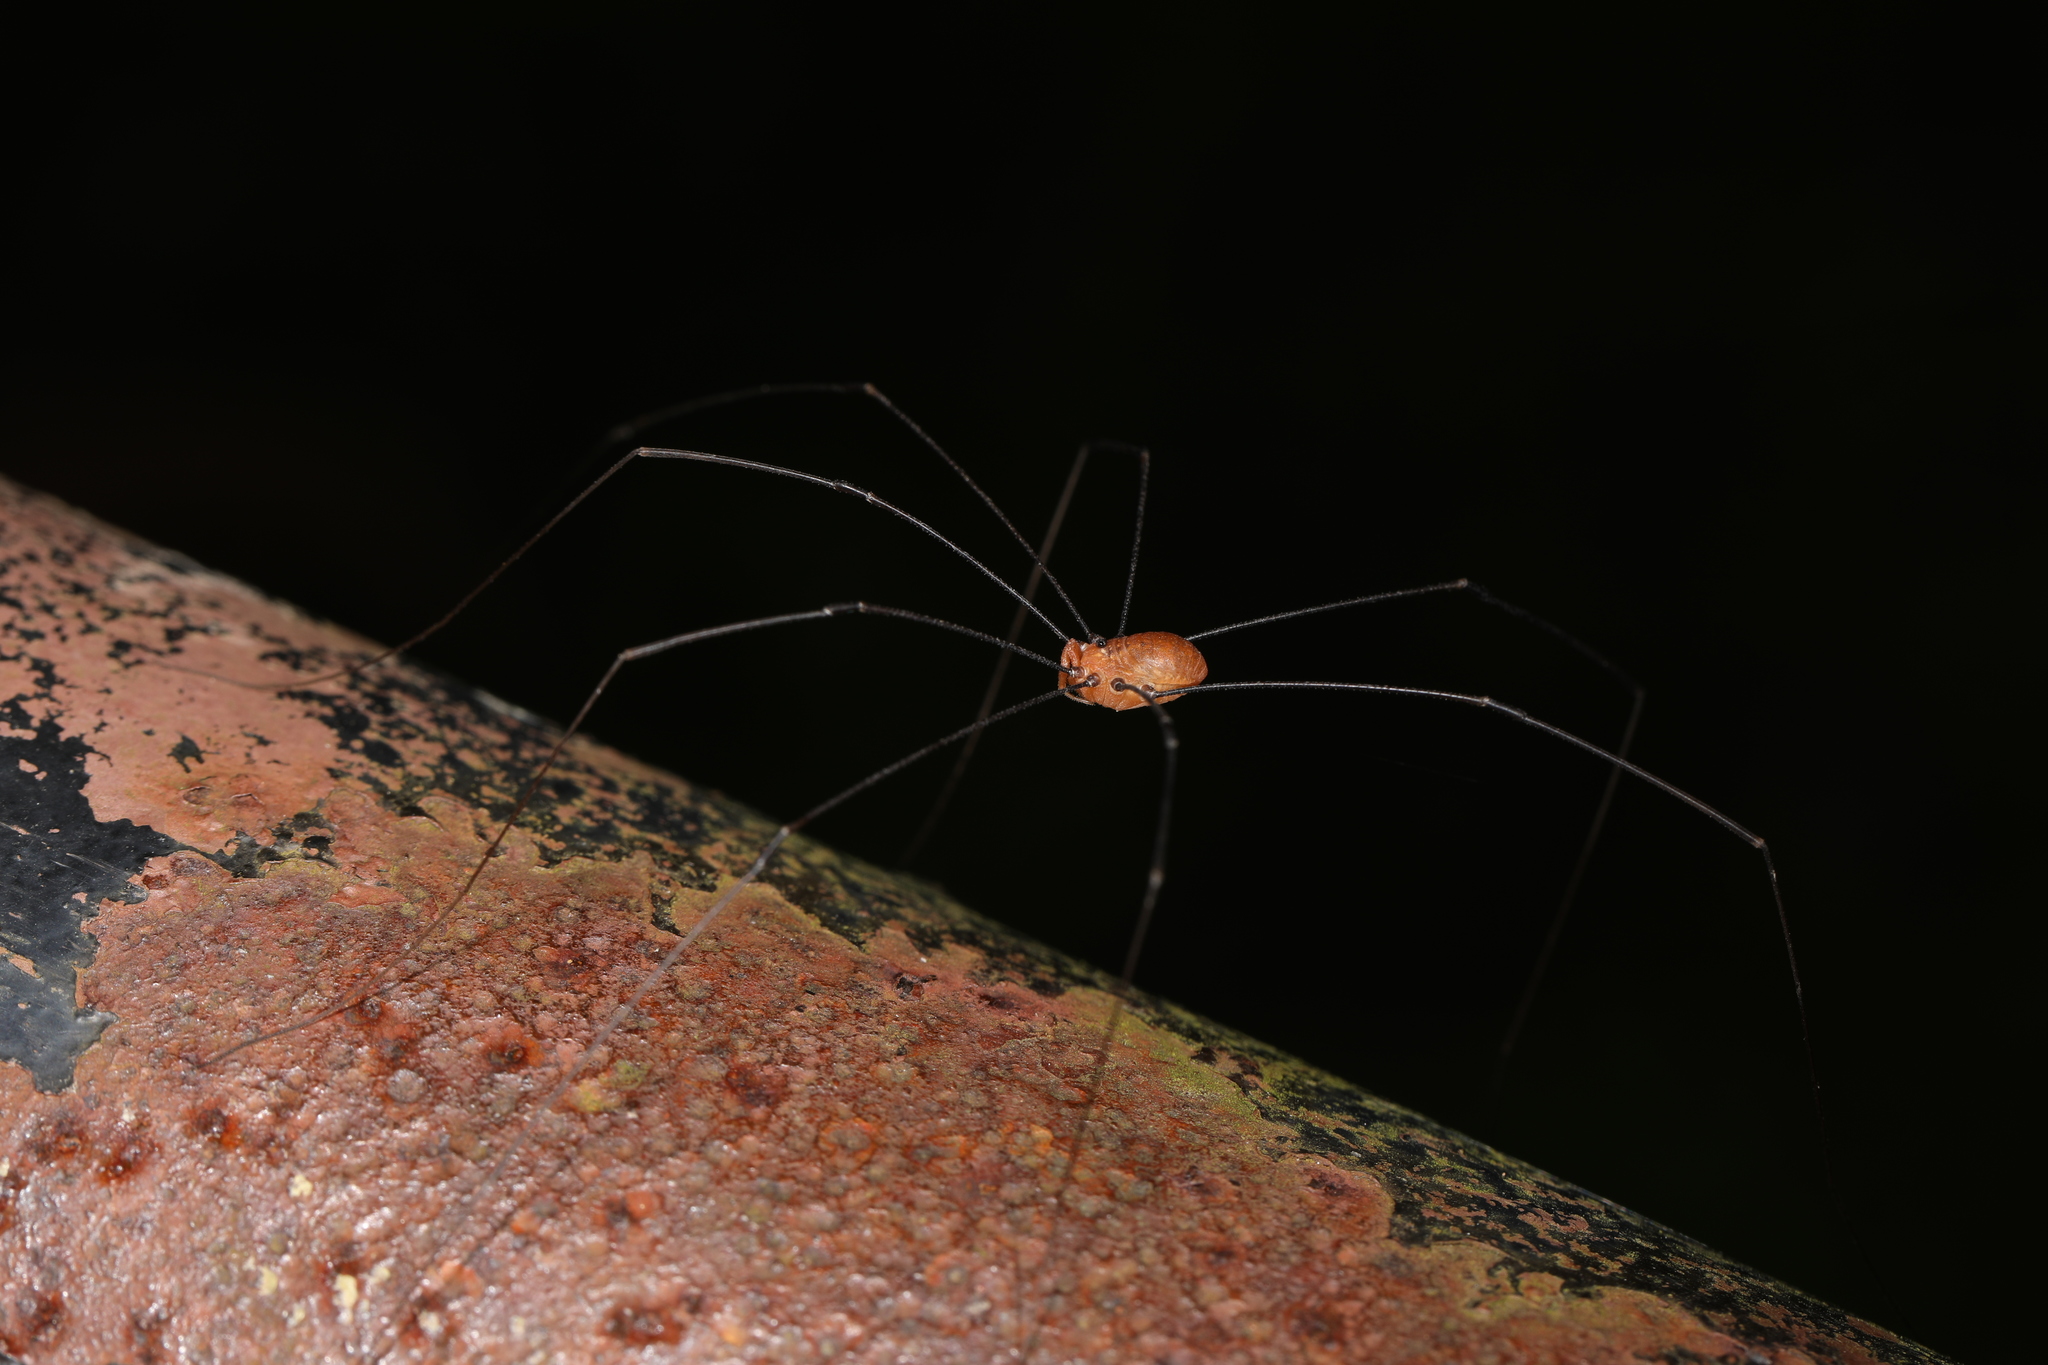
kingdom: Animalia
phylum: Arthropoda
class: Arachnida
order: Opiliones
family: Sclerosomatidae
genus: Leiobunum
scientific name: Leiobunum uxorium
